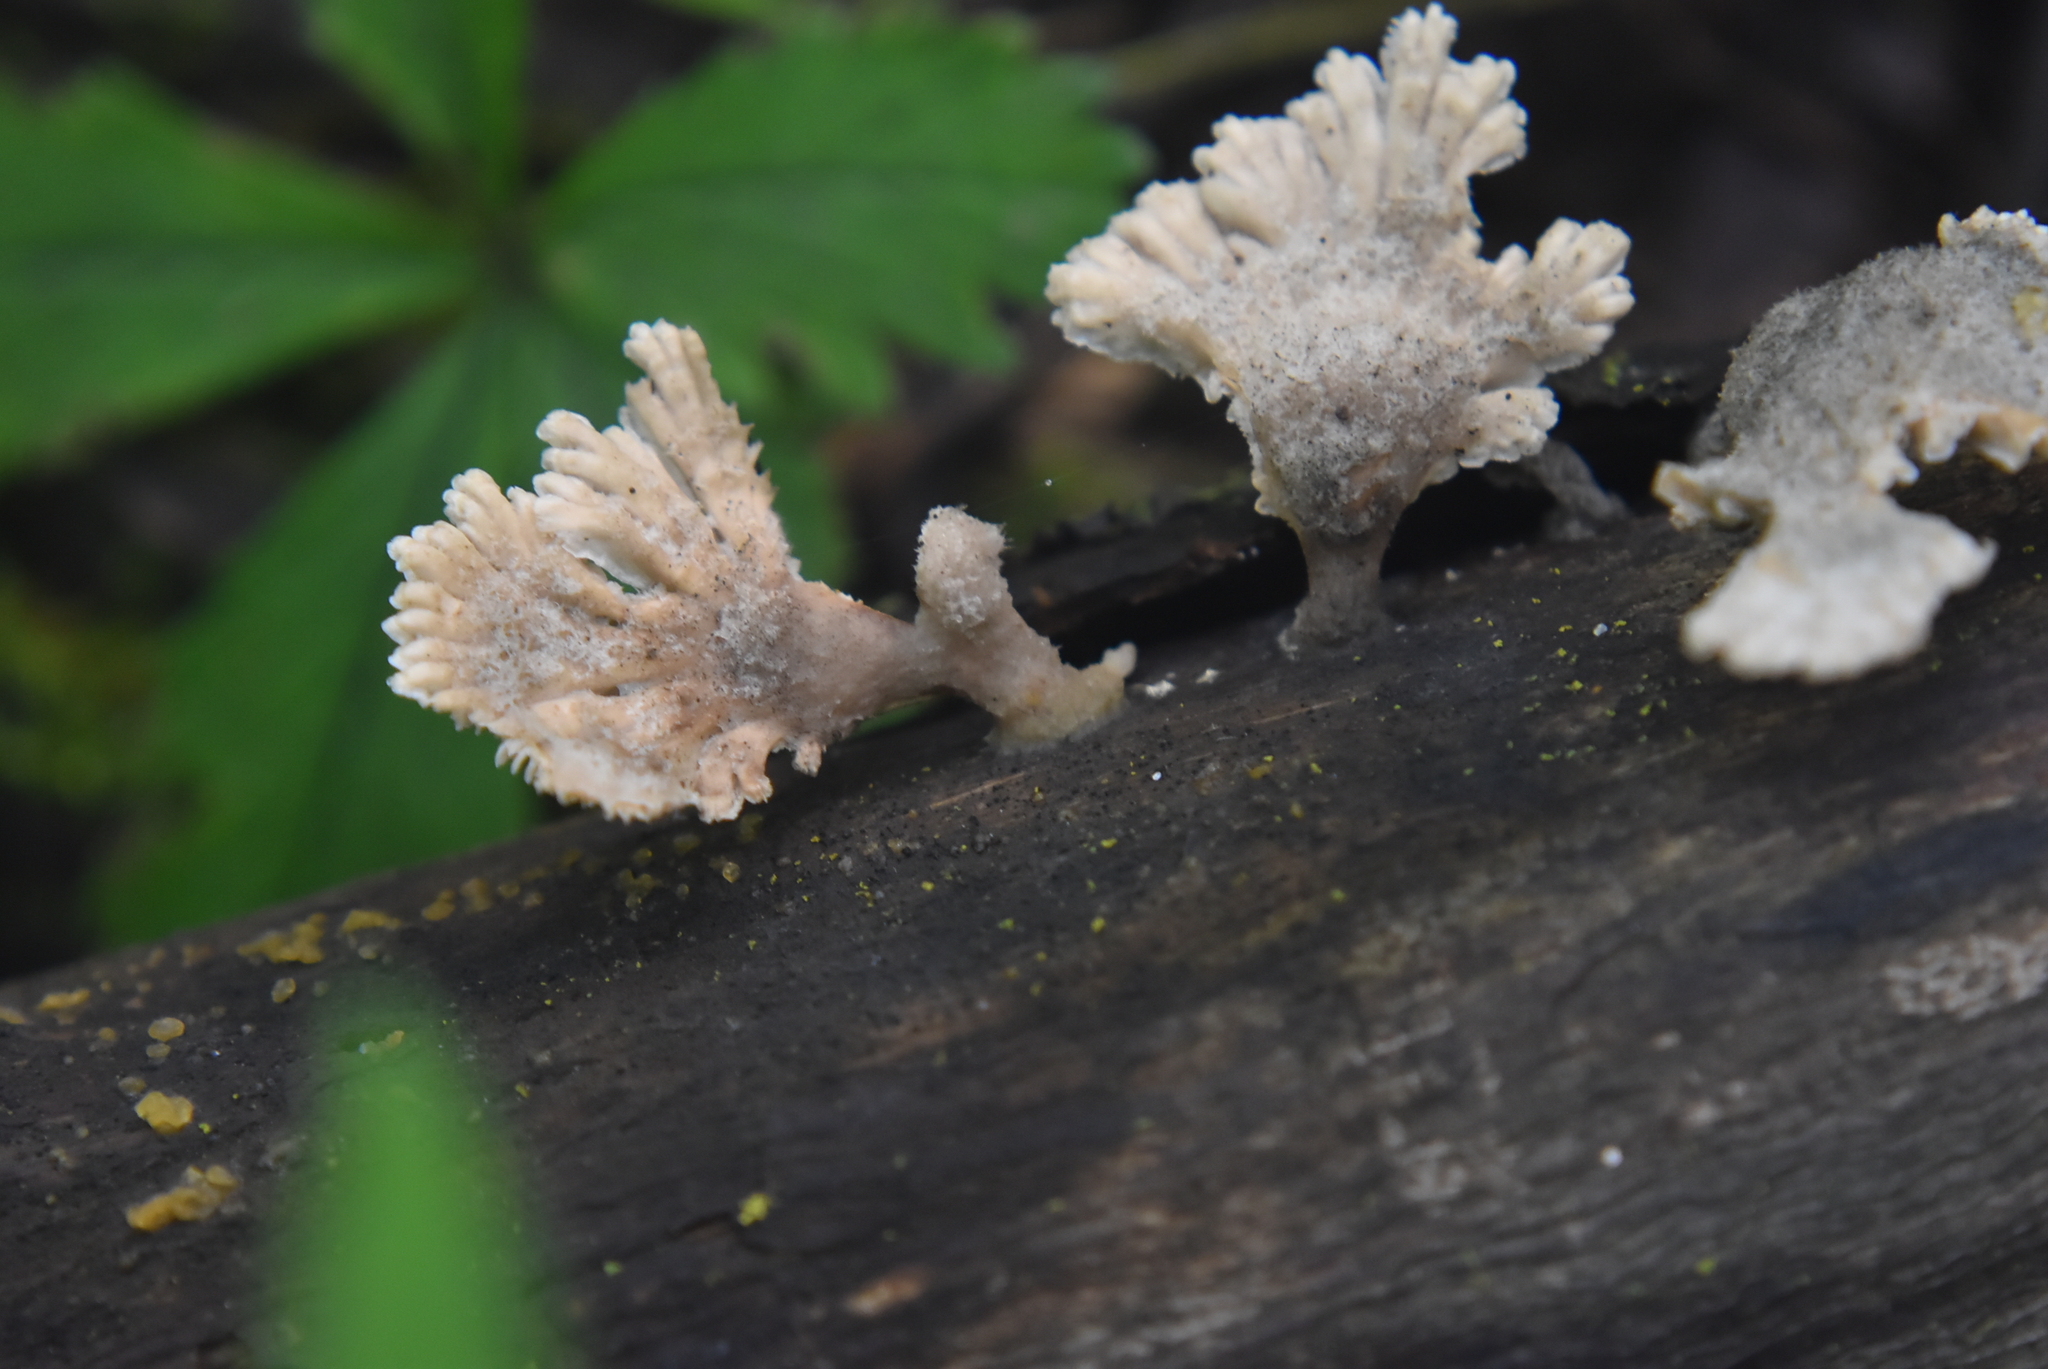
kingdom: Fungi
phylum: Basidiomycota
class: Agaricomycetes
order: Agaricales
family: Schizophyllaceae
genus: Schizophyllum
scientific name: Schizophyllum commune
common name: Common porecrust
